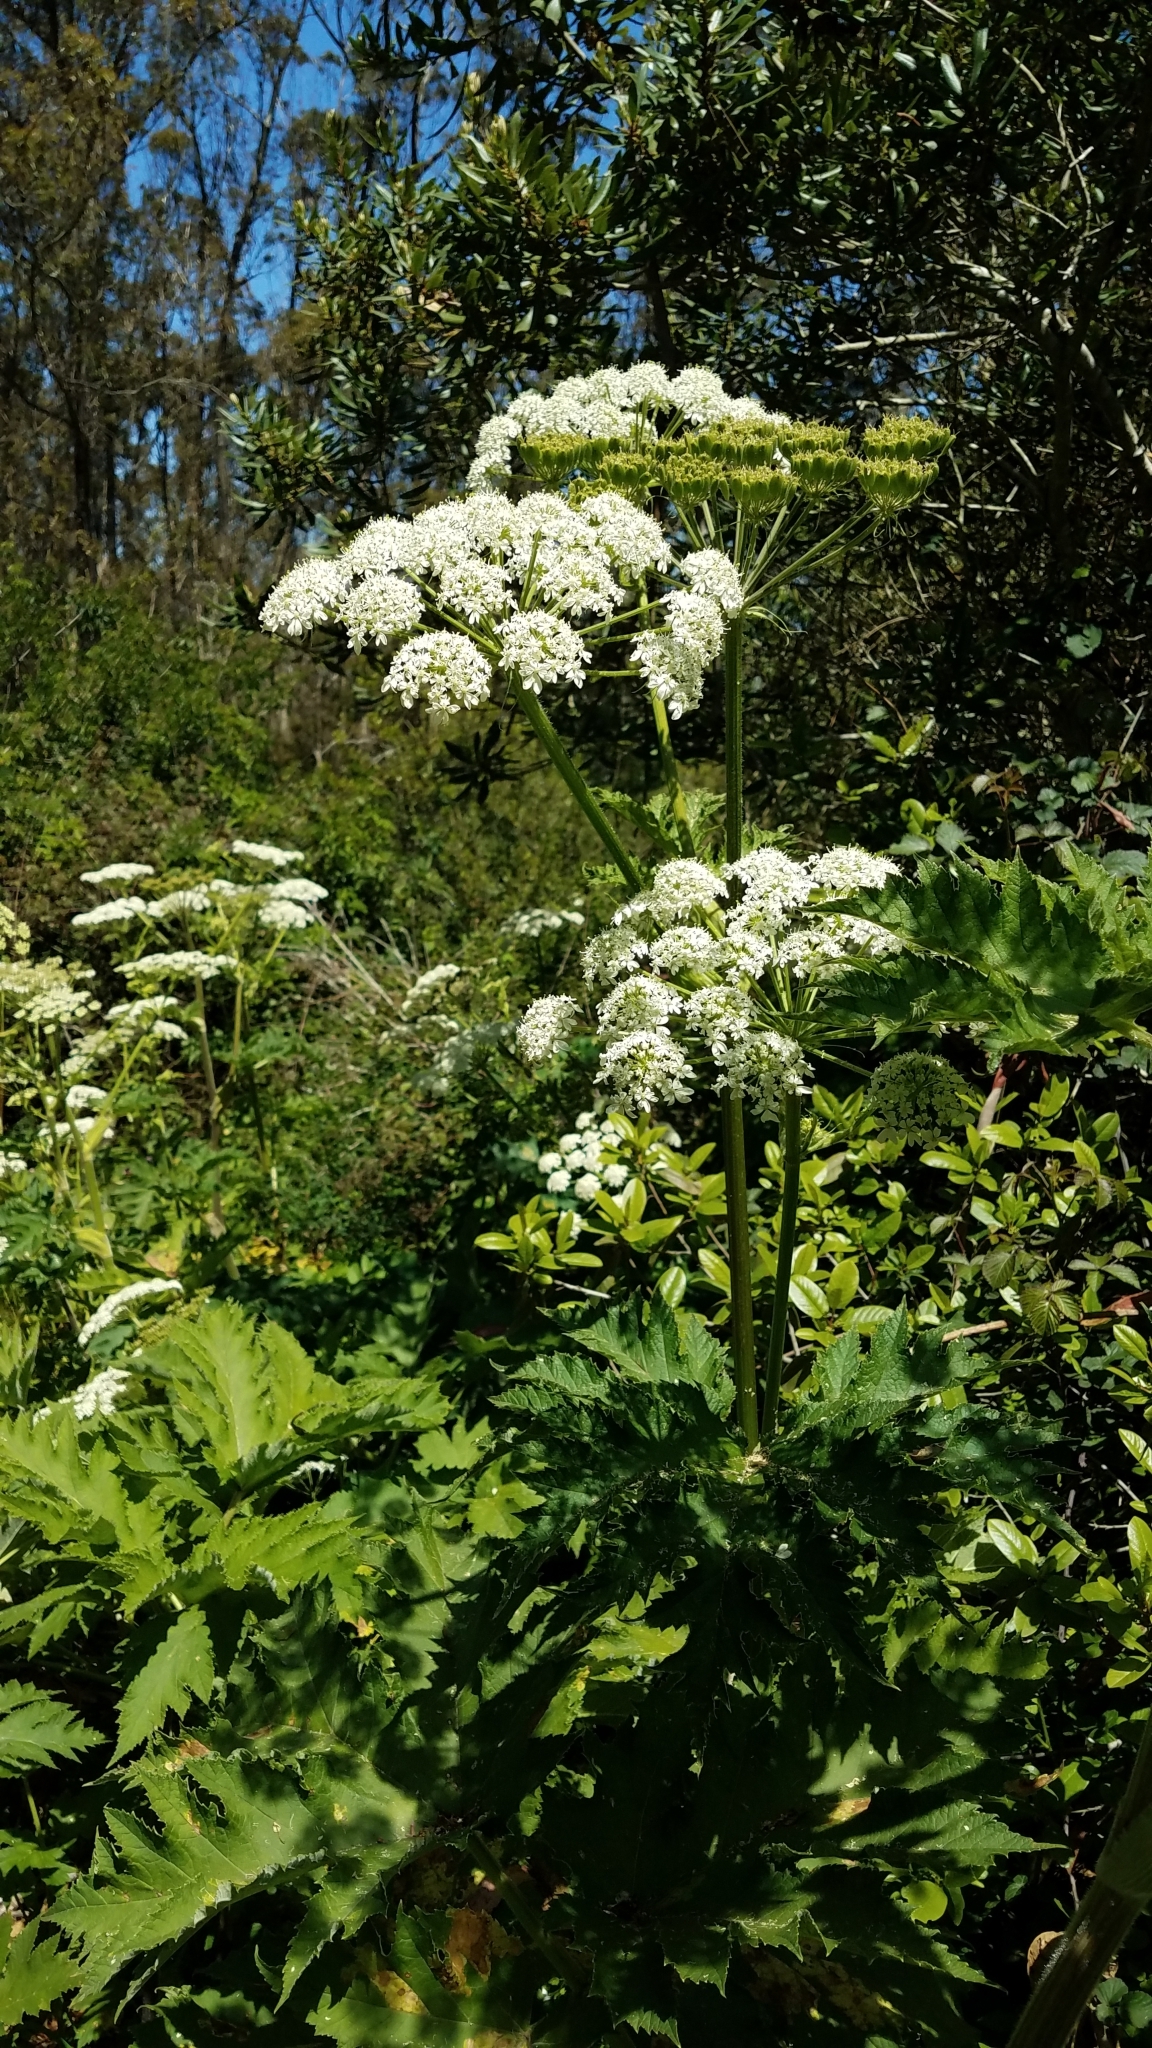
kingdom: Plantae
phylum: Tracheophyta
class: Magnoliopsida
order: Apiales
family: Apiaceae
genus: Heracleum
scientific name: Heracleum maximum
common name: American cow parsnip
